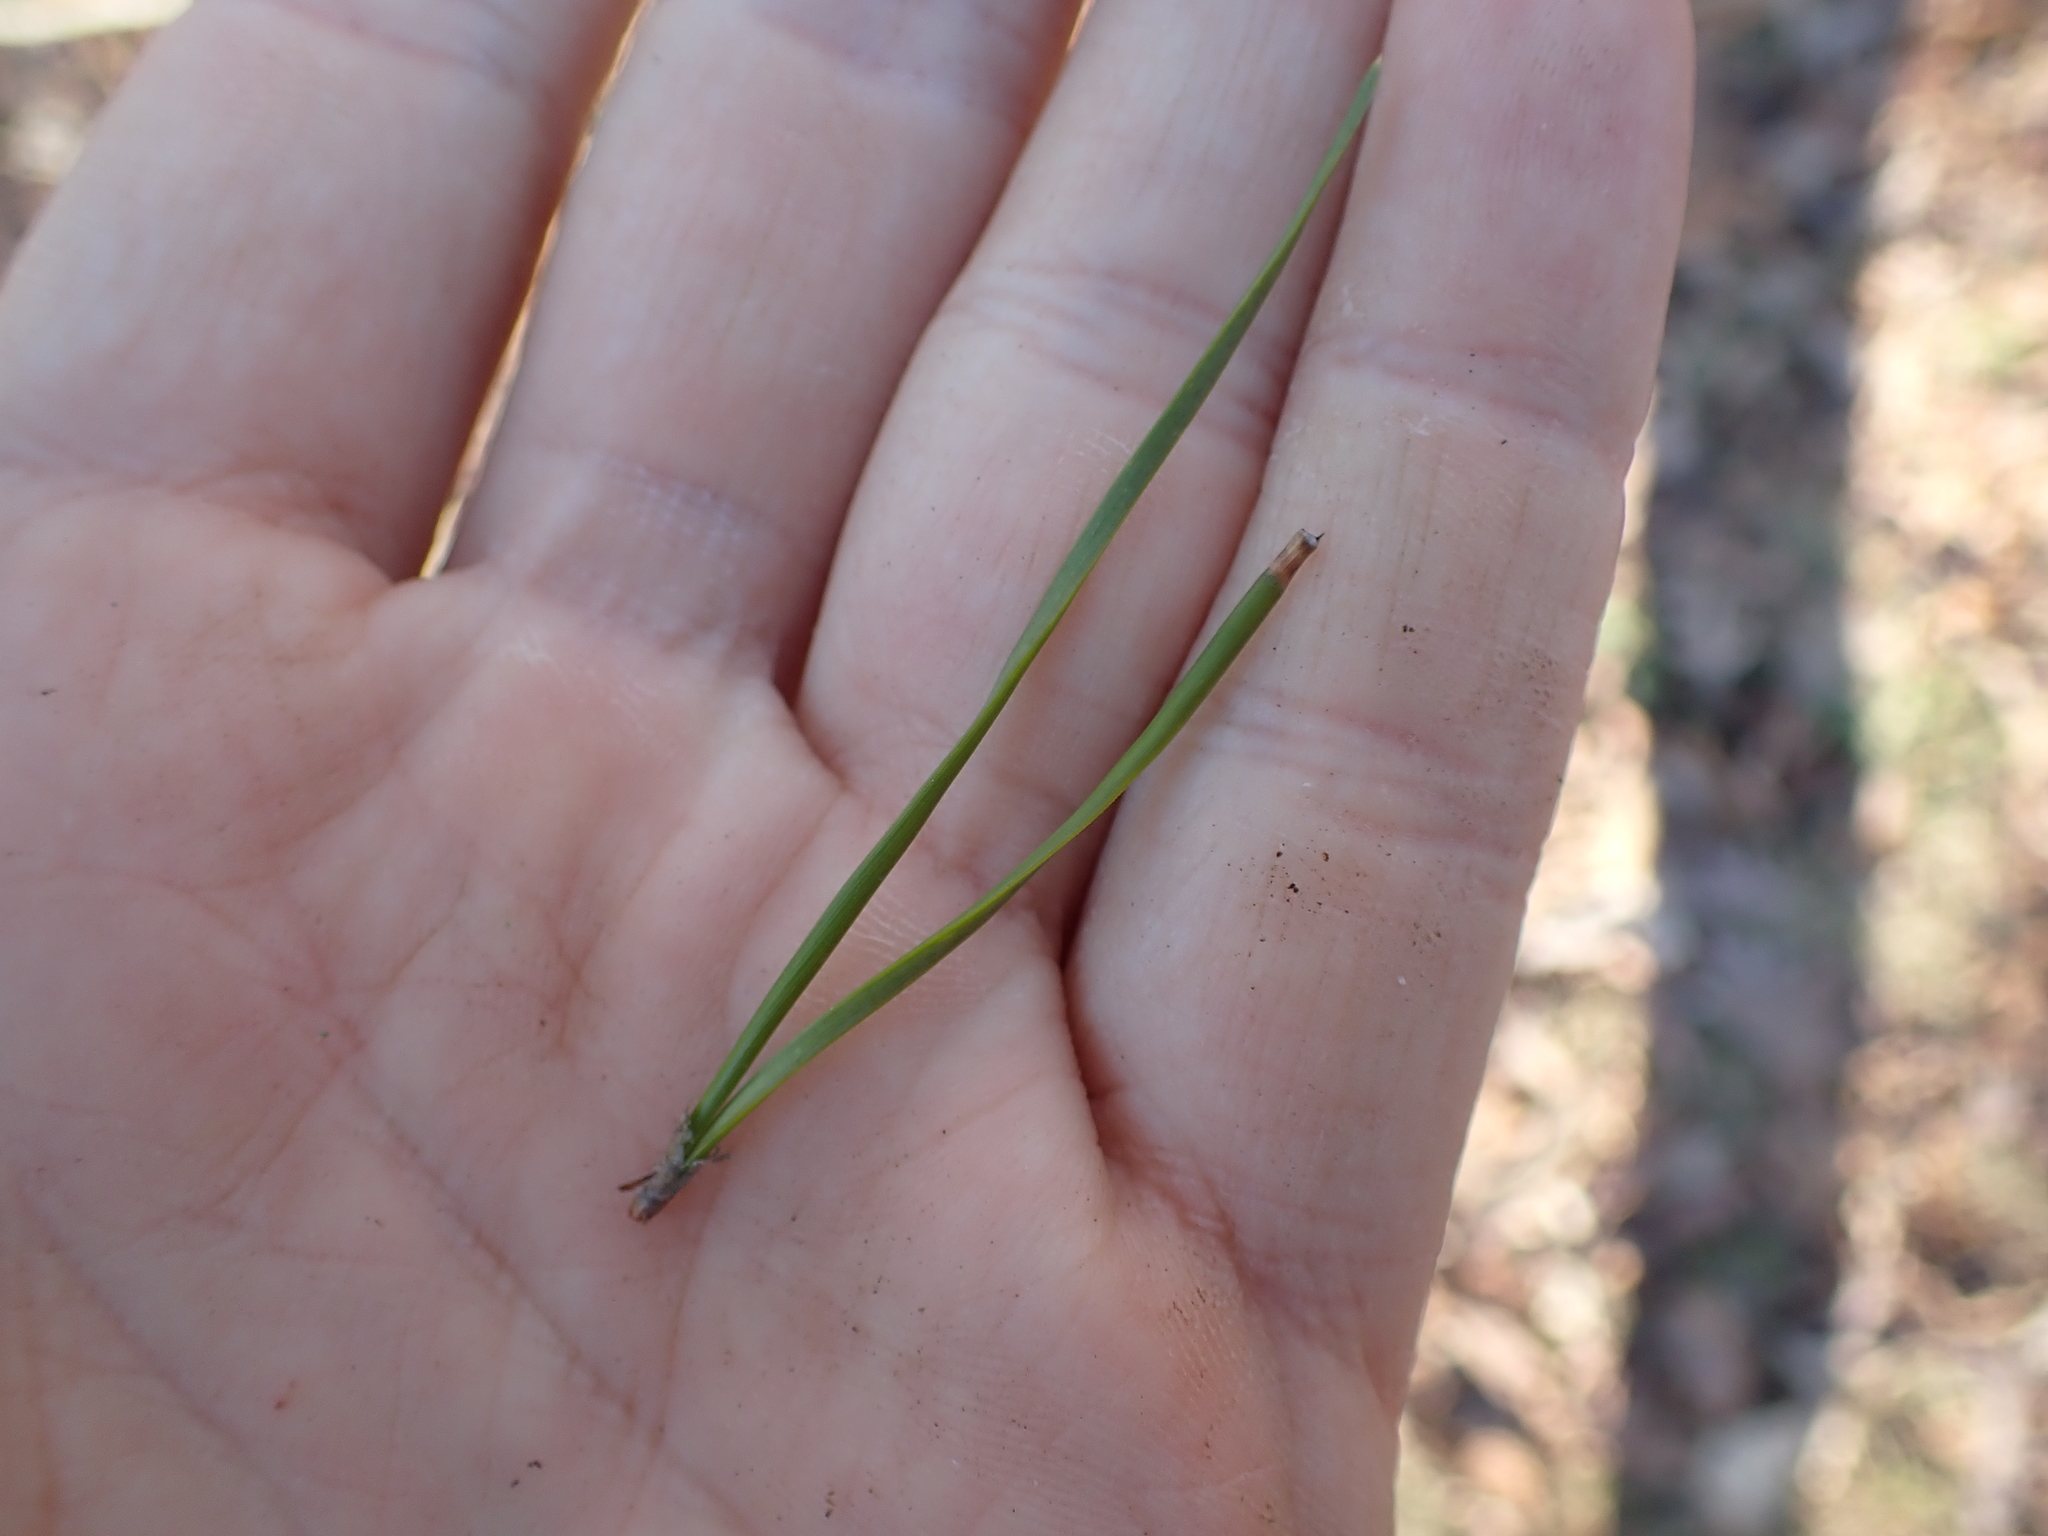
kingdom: Plantae
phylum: Tracheophyta
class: Pinopsida
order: Pinales
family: Pinaceae
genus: Pinus
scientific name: Pinus virginiana
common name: Scrub pine
